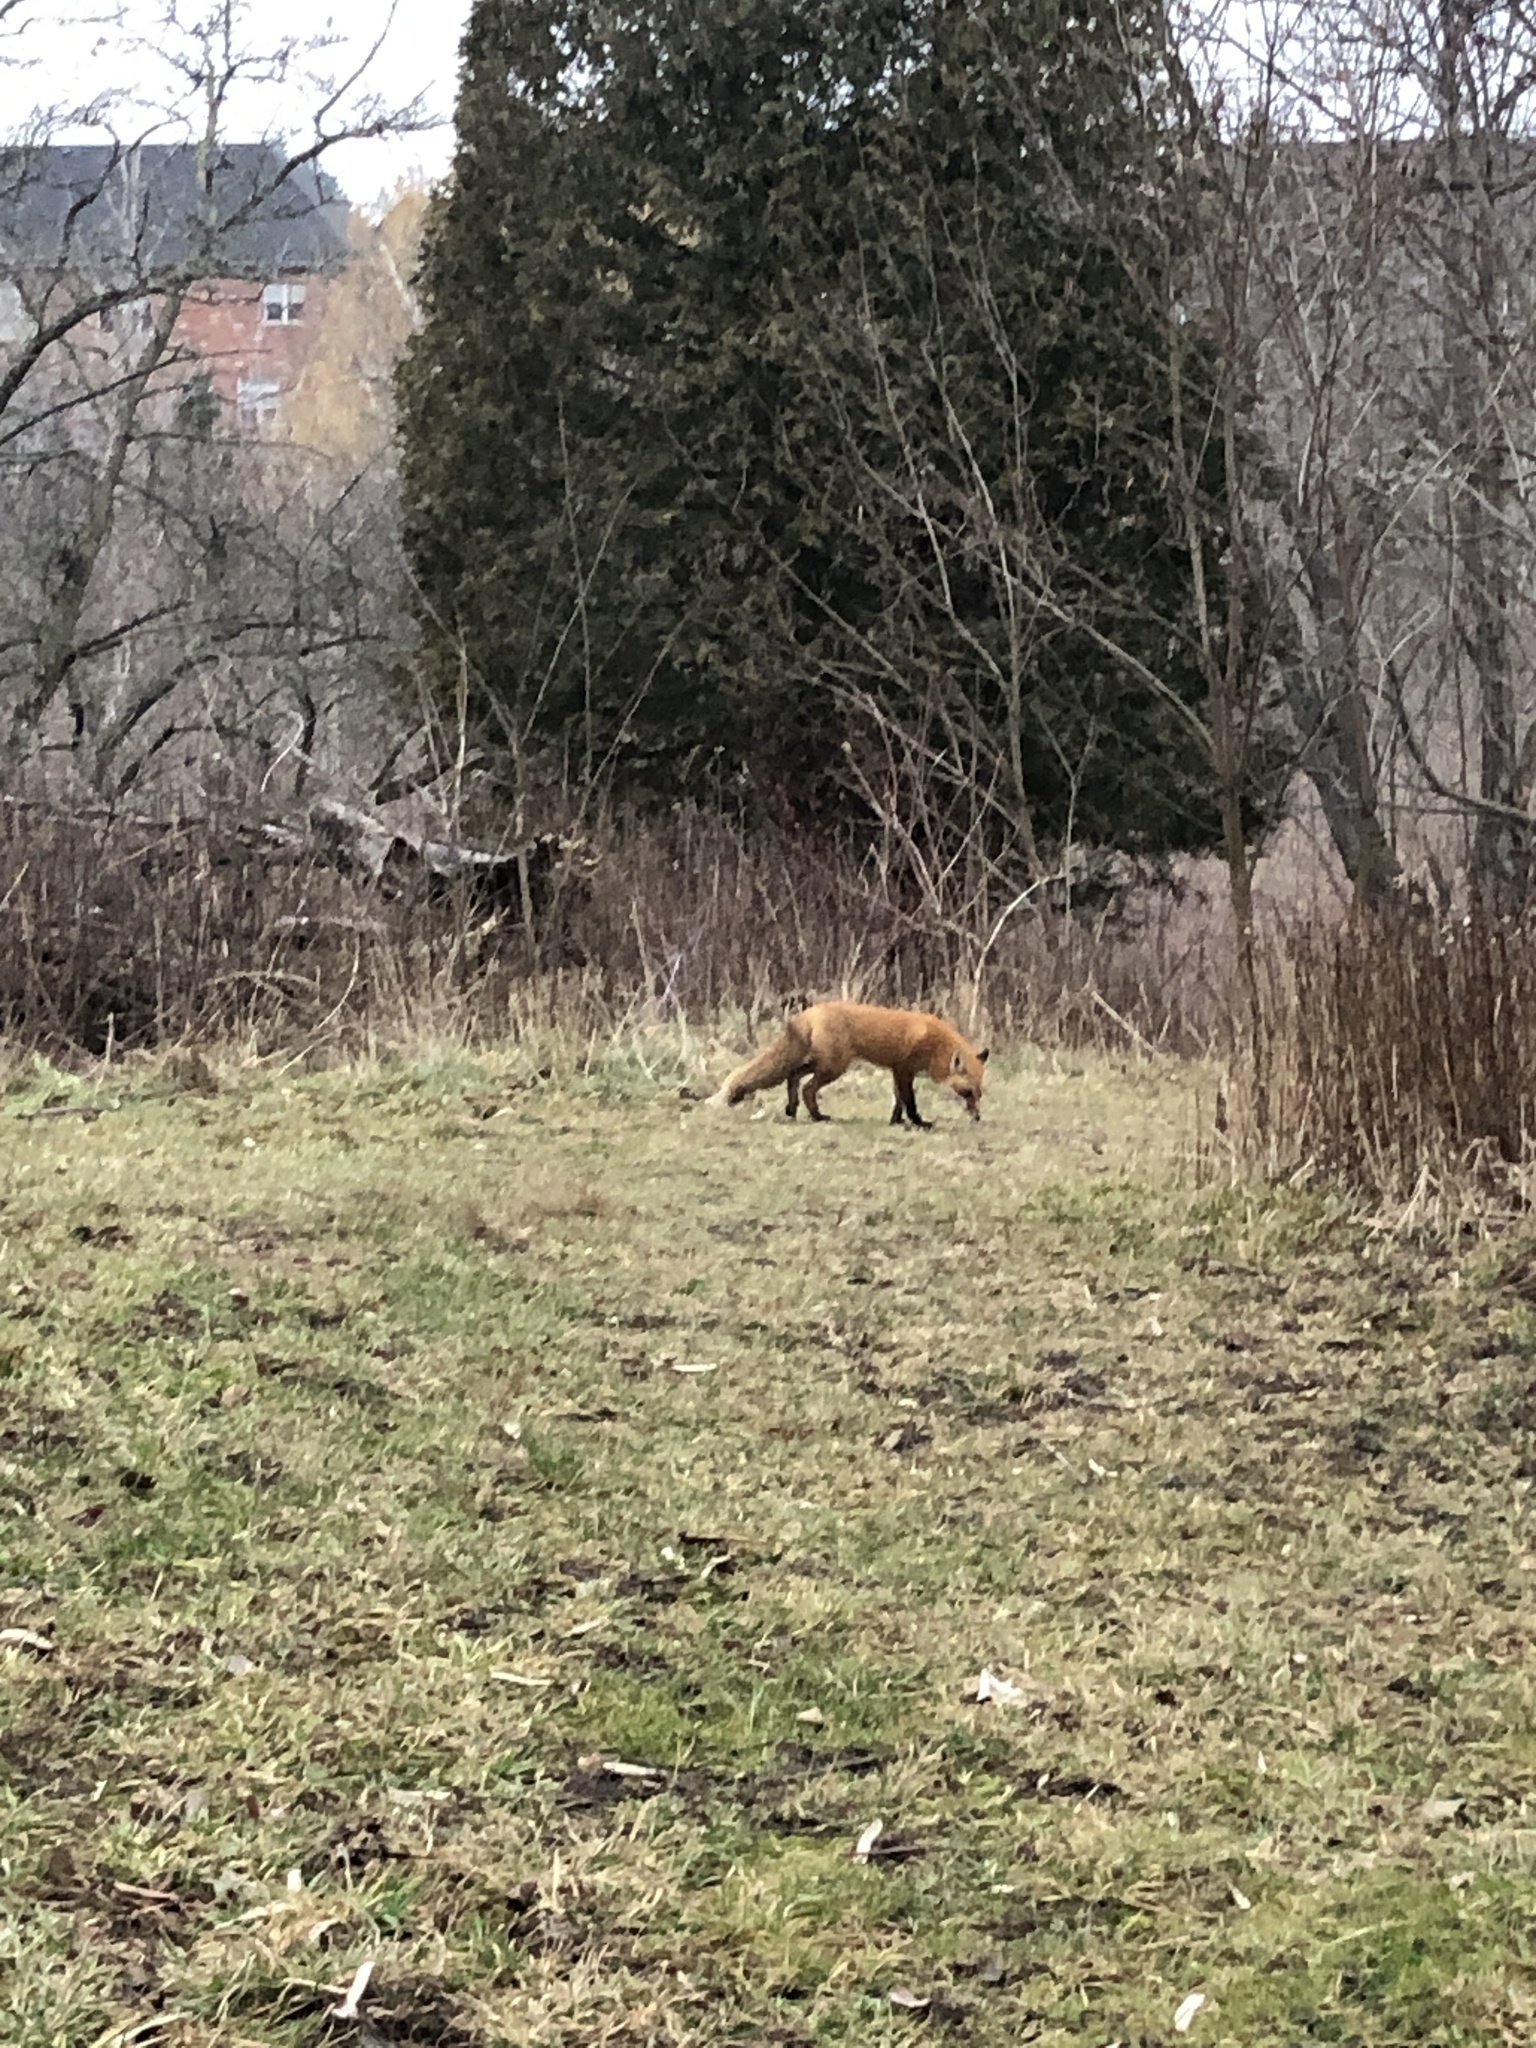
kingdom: Animalia
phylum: Chordata
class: Mammalia
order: Carnivora
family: Canidae
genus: Vulpes
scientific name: Vulpes vulpes
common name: Red fox
